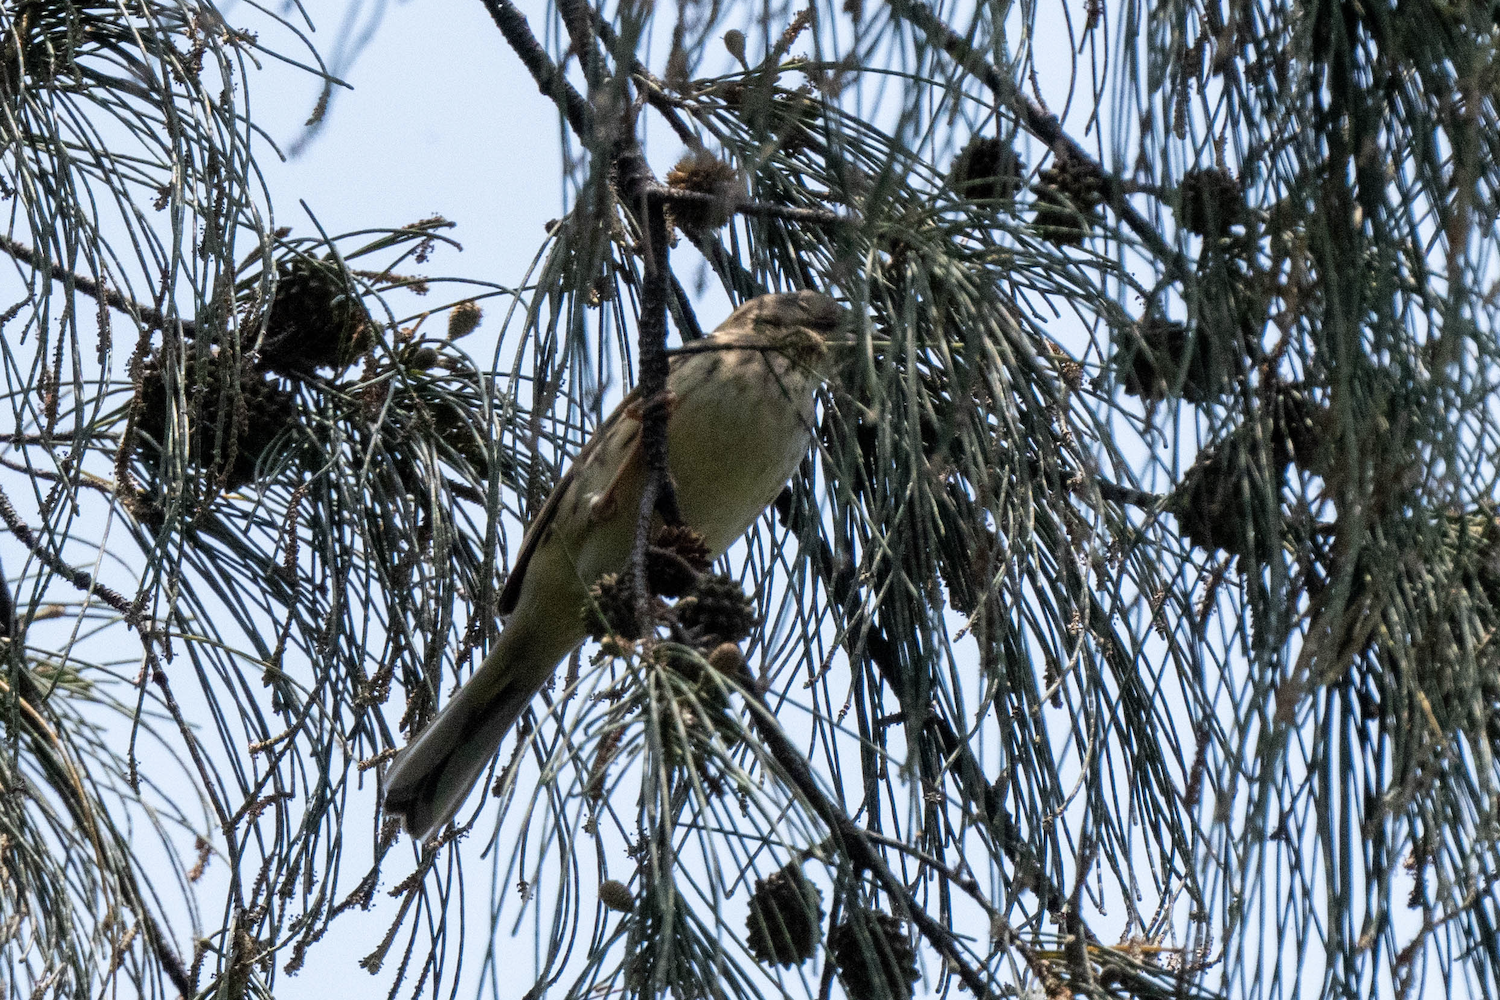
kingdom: Animalia
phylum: Chordata
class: Aves
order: Passeriformes
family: Emberizidae
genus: Emberiza
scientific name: Emberiza spodocephala
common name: Black-faced bunting
